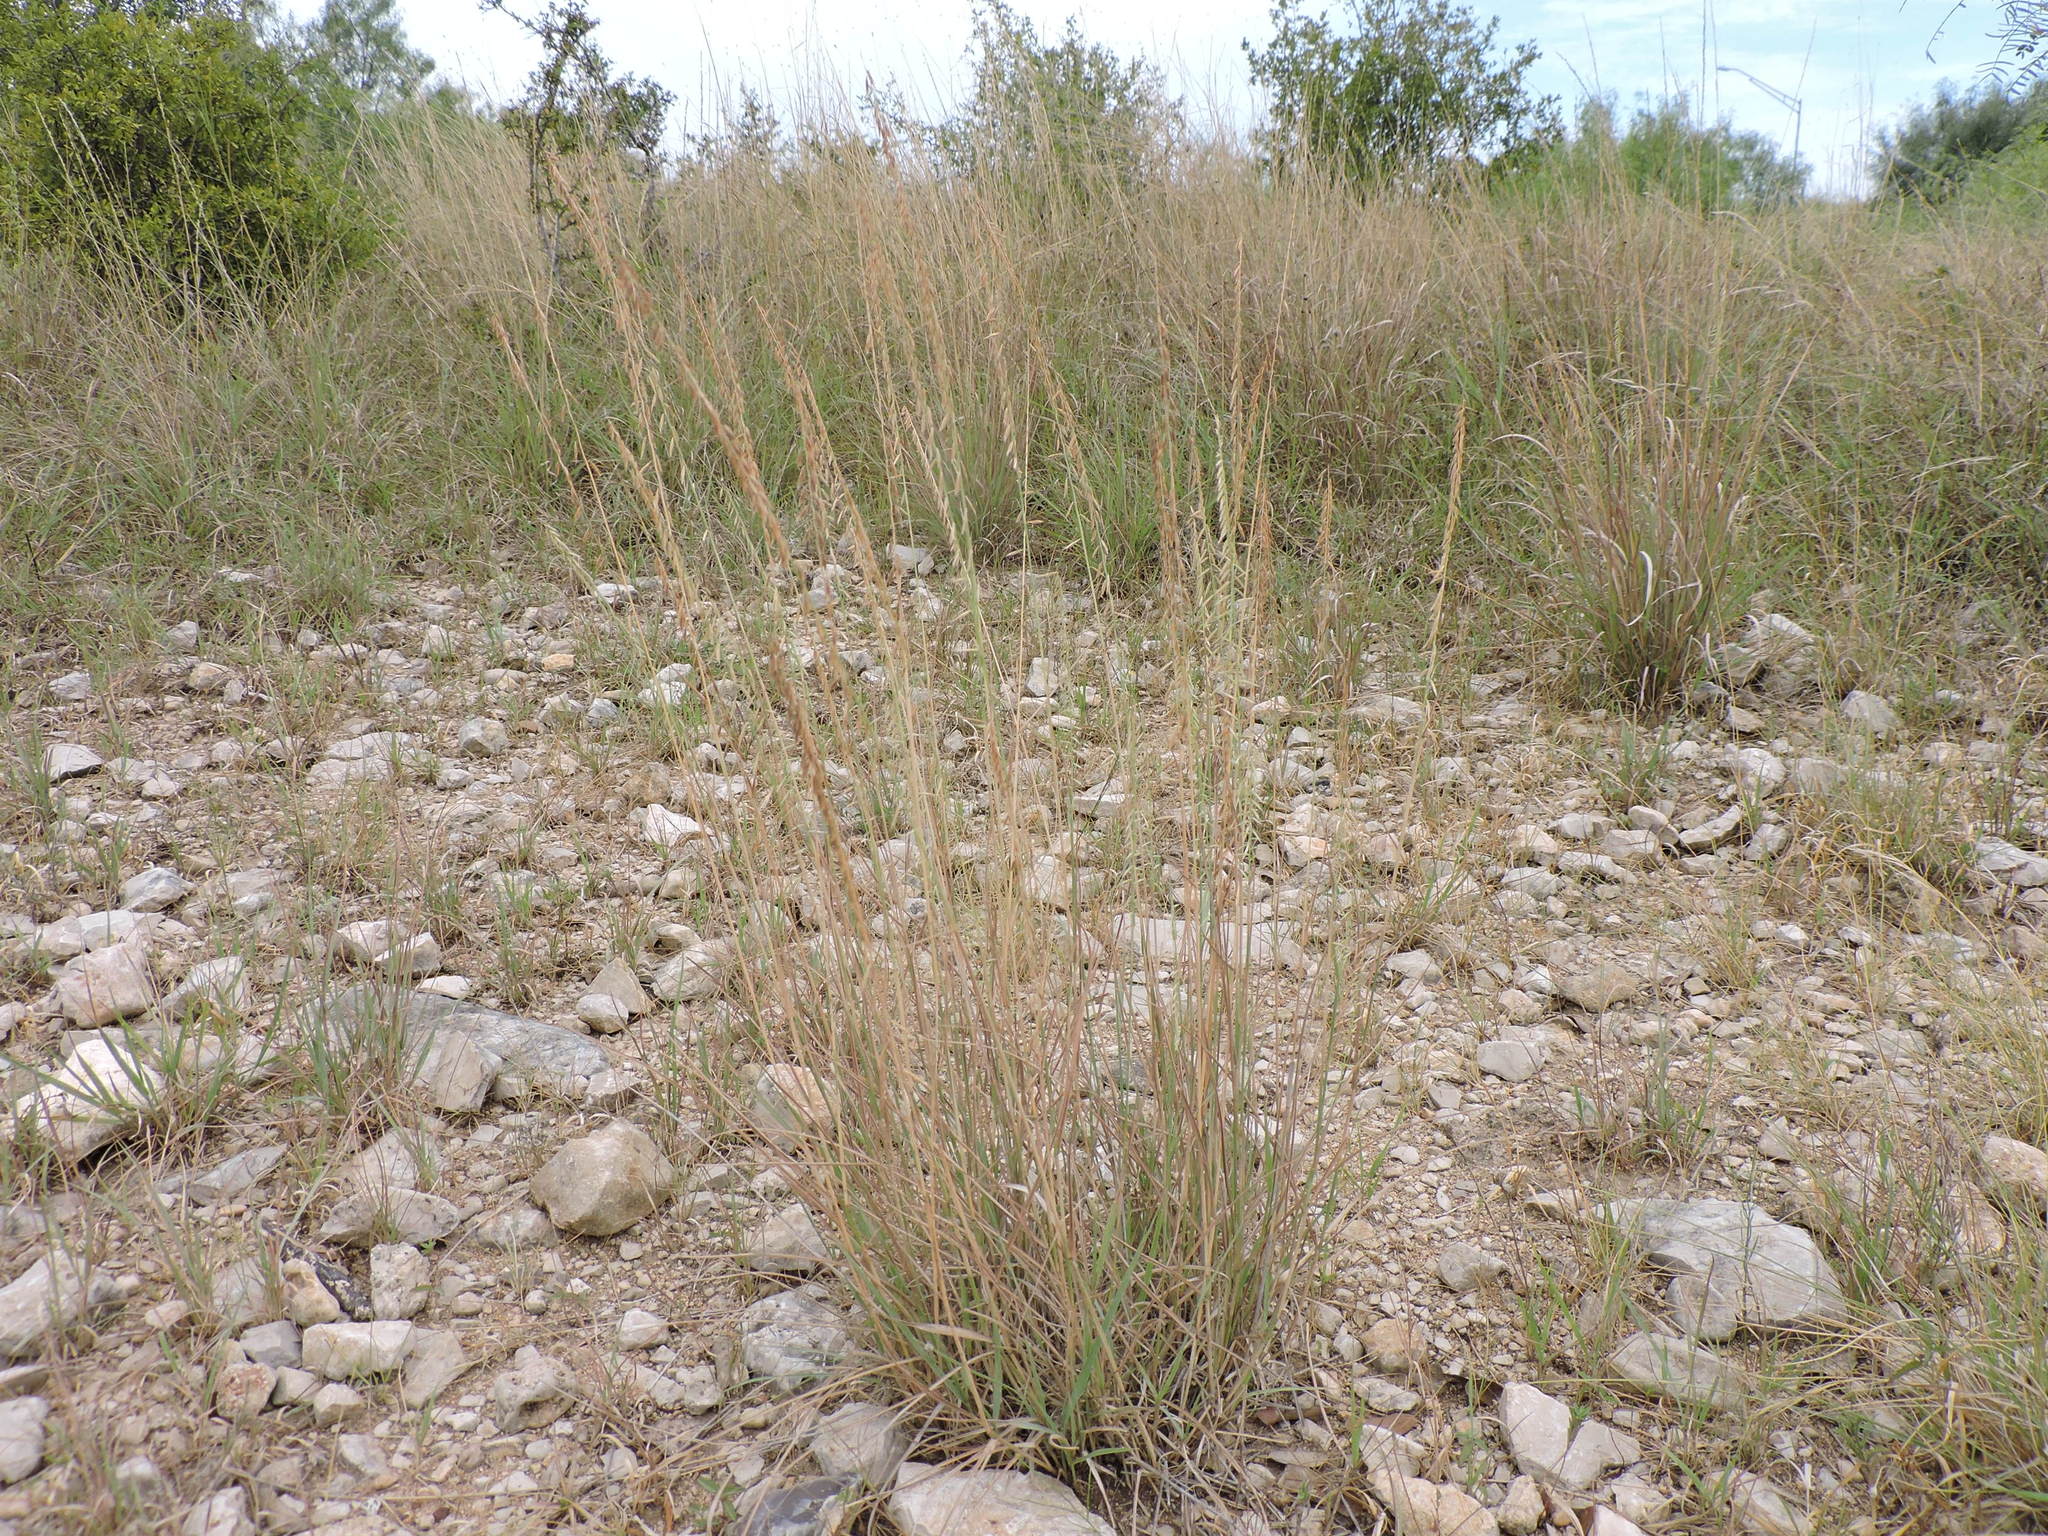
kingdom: Plantae
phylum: Tracheophyta
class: Liliopsida
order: Poales
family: Poaceae
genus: Bouteloua
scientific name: Bouteloua curtipendula
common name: Side-oats grama
